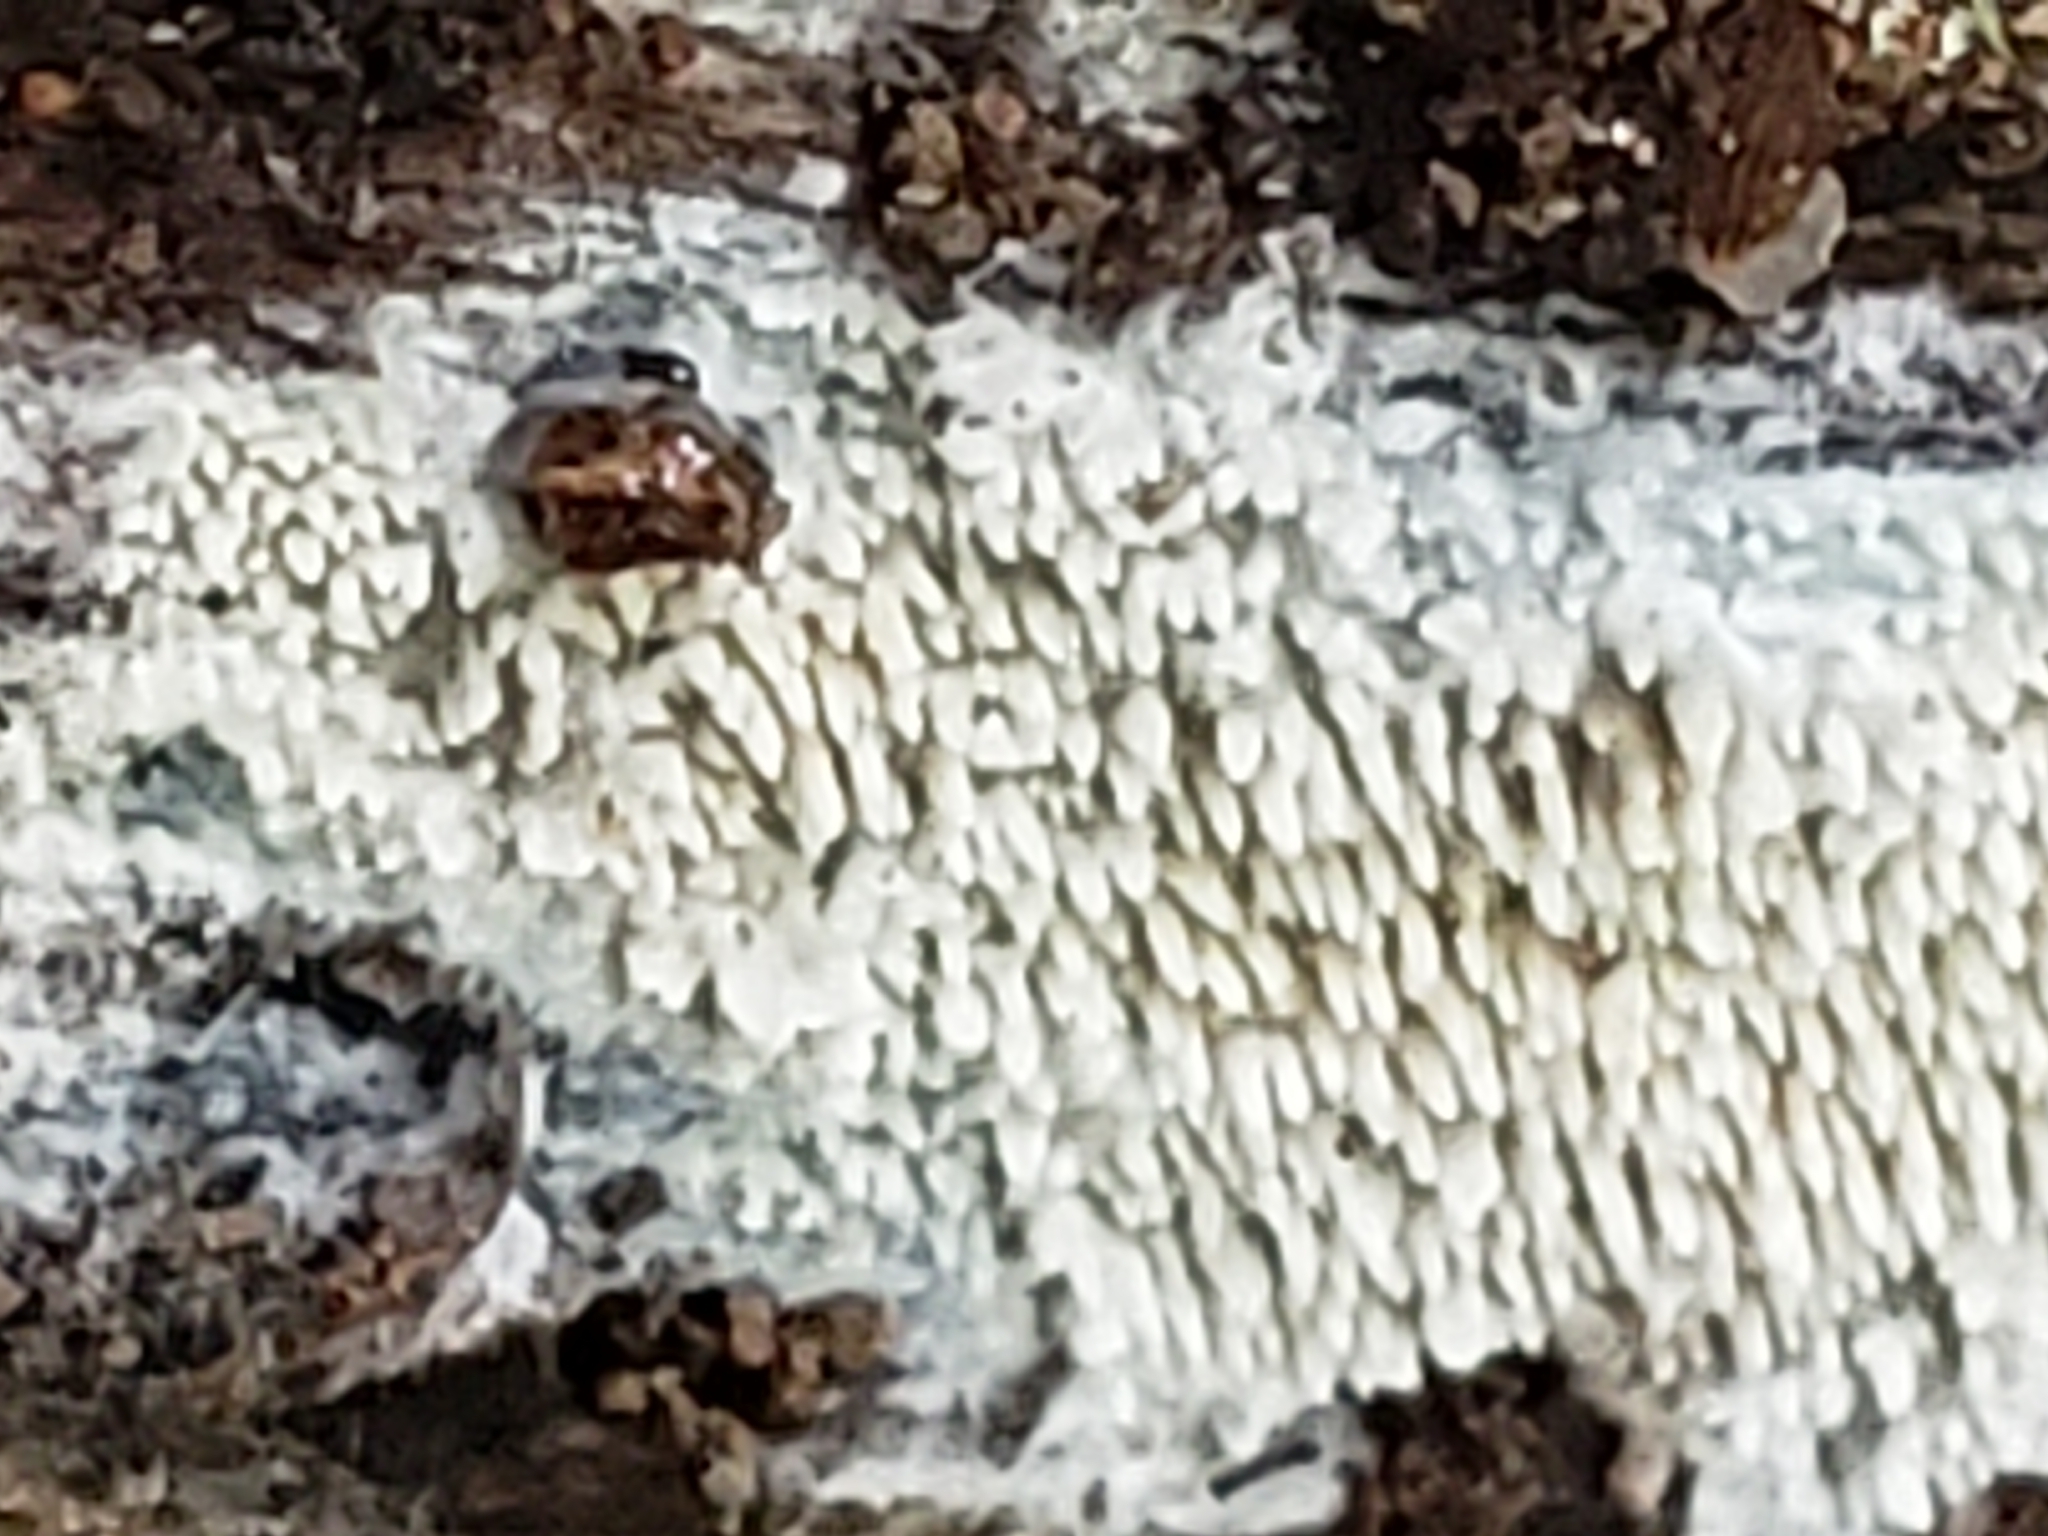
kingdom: Fungi
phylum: Basidiomycota
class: Agaricomycetes
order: Agaricales
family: Radulomycetaceae
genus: Radulomyces
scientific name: Radulomyces copelandii
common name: Asian beauty
